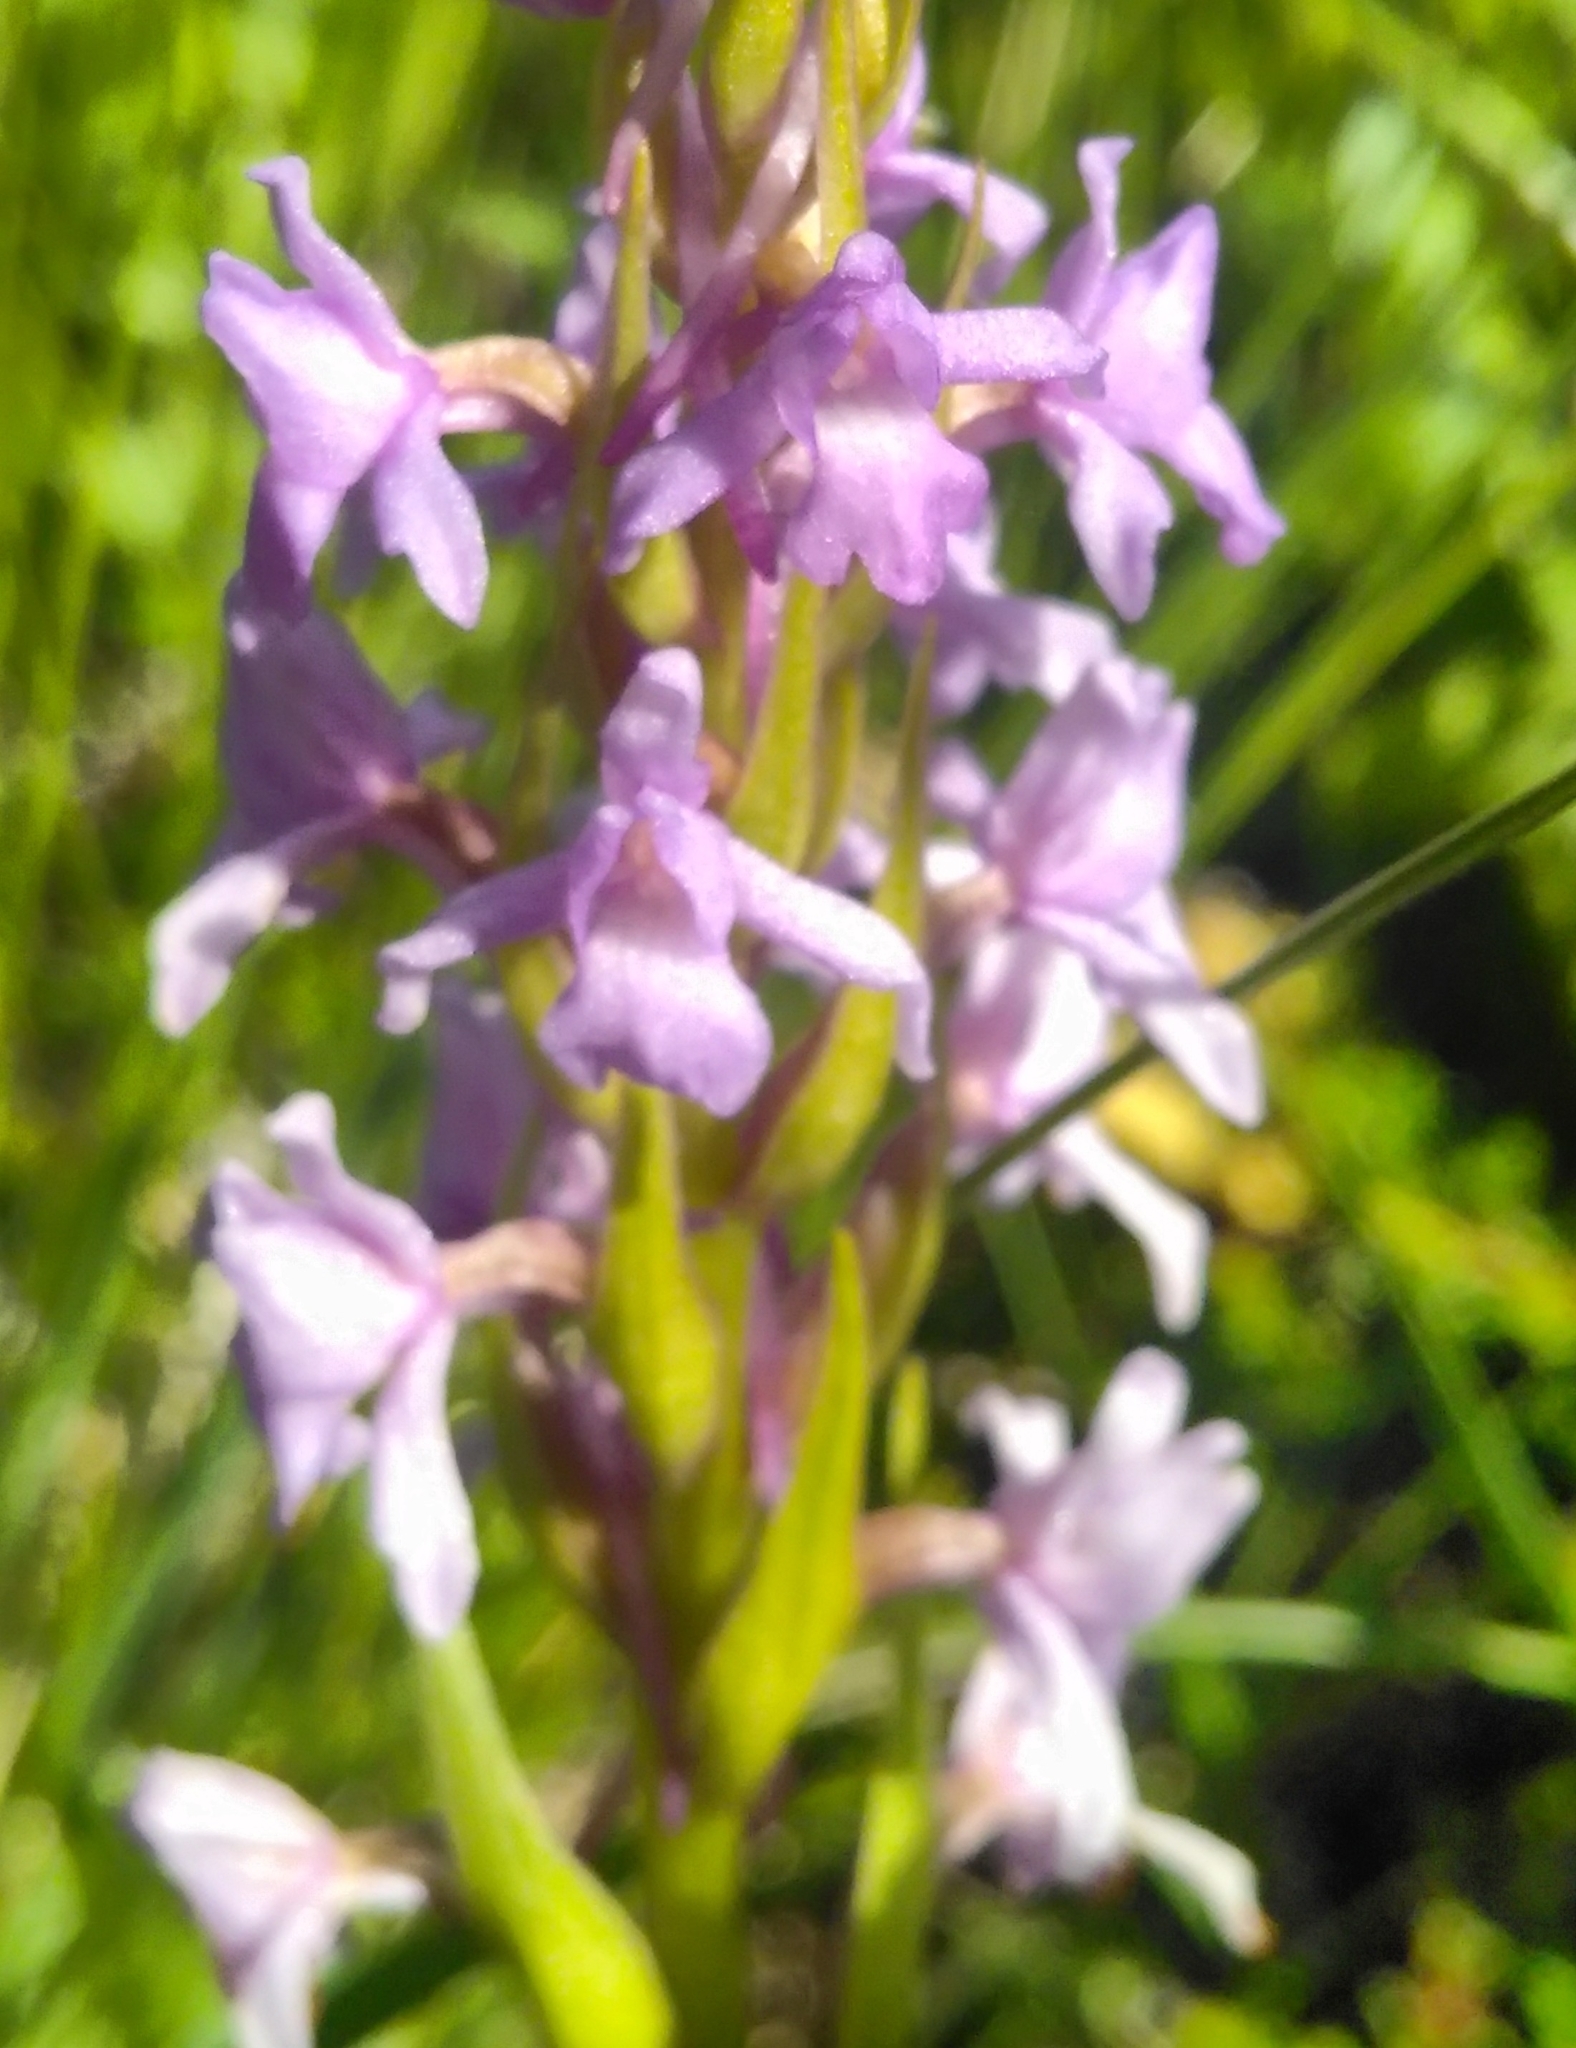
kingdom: Plantae
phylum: Tracheophyta
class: Liliopsida
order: Asparagales
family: Orchidaceae
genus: Gymnadenia
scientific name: Gymnadenia conopsea
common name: Fragrant orchid
